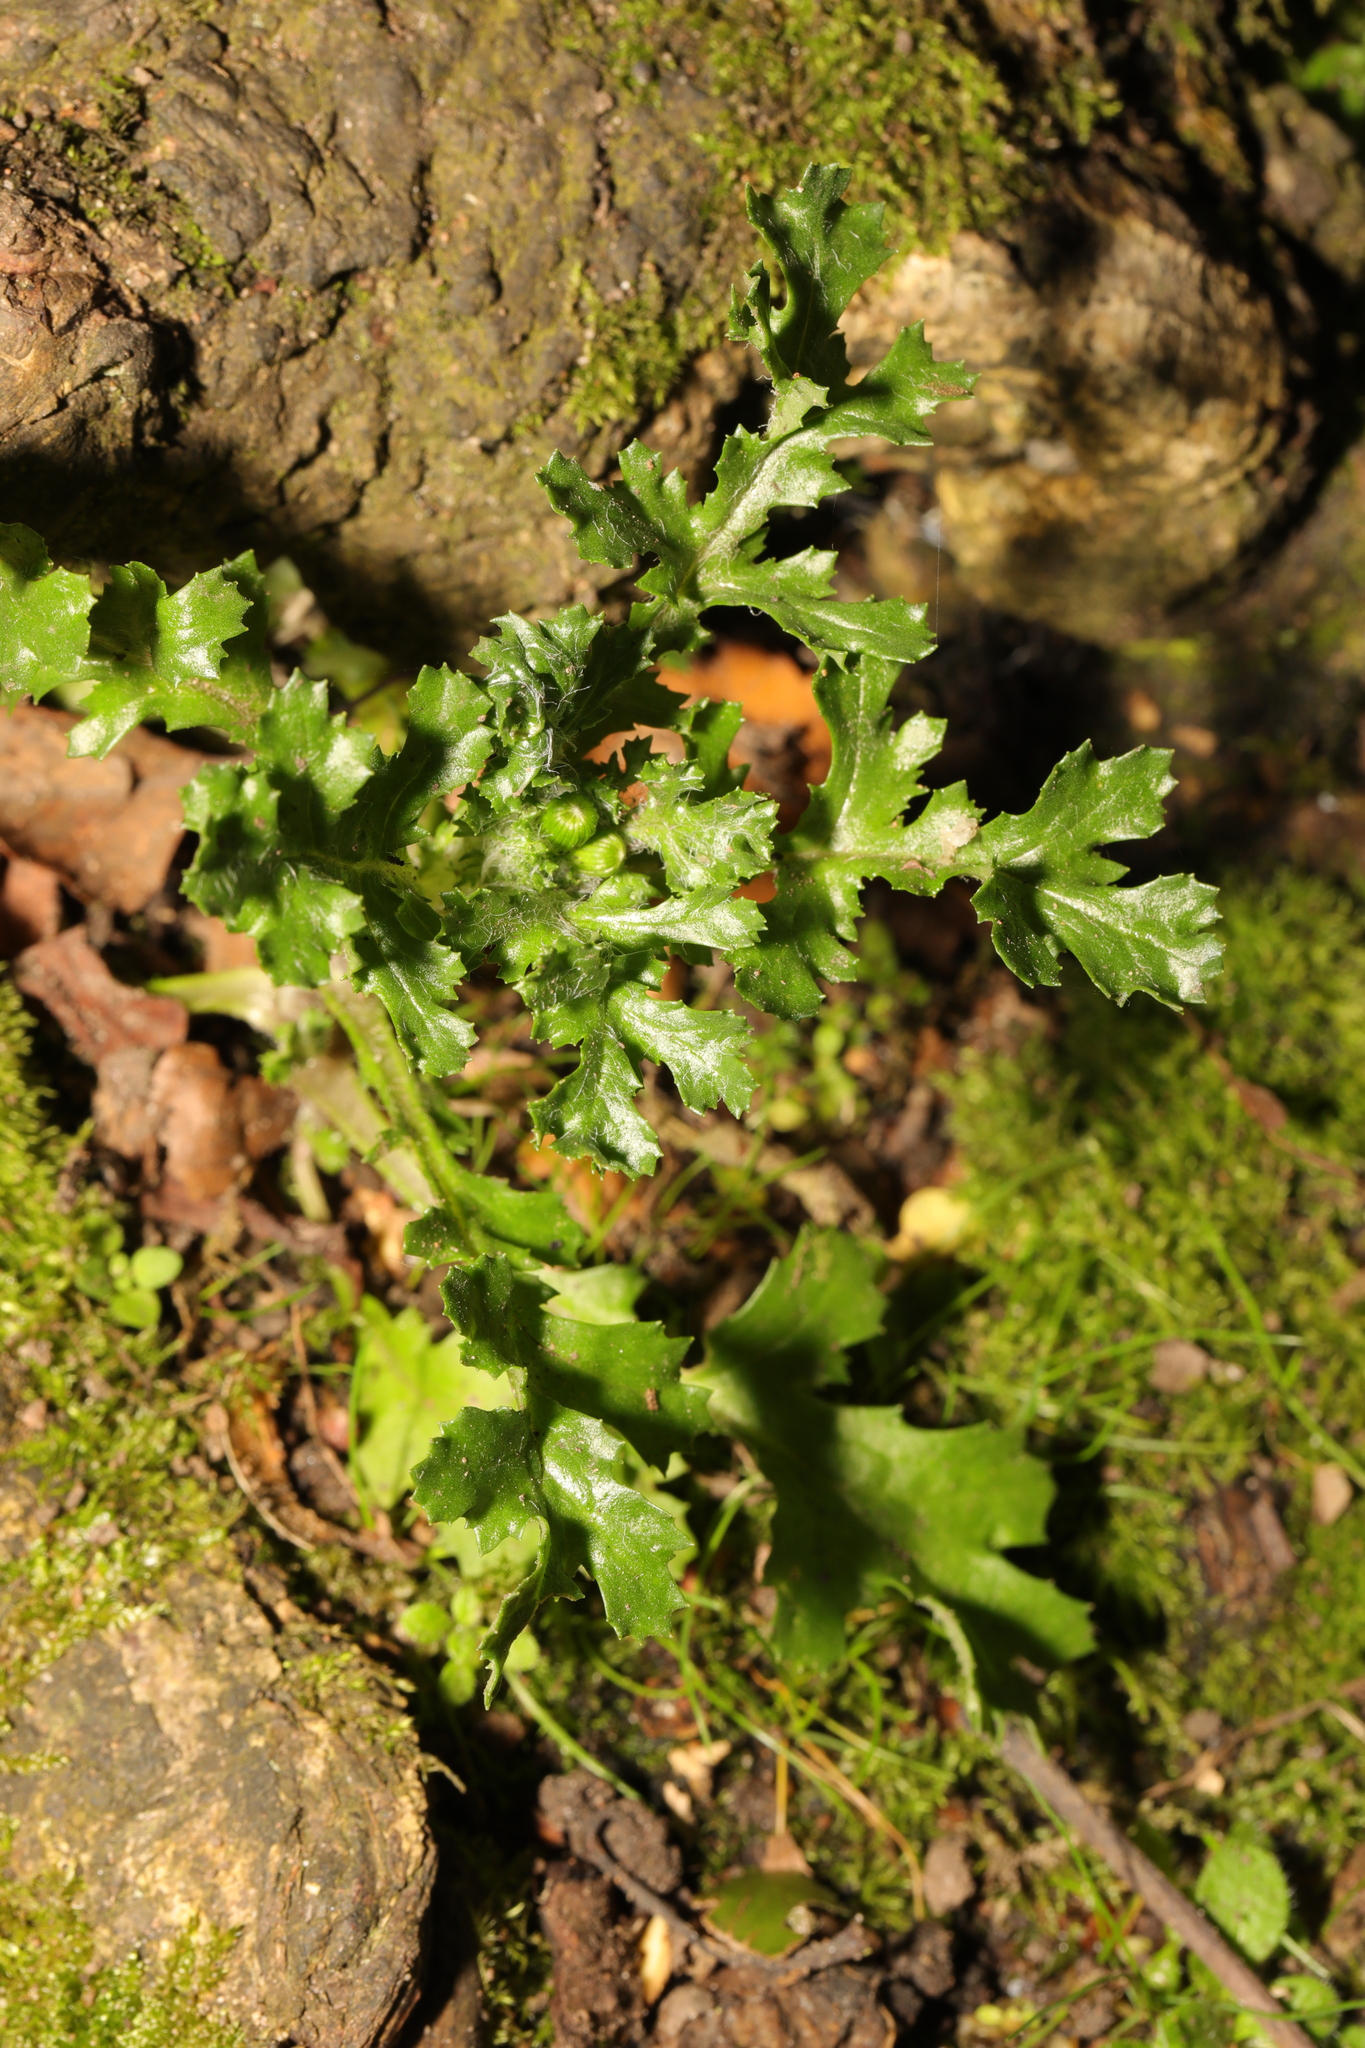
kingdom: Plantae
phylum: Tracheophyta
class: Magnoliopsida
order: Asterales
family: Asteraceae
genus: Senecio
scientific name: Senecio vulgaris
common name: Old-man-in-the-spring
